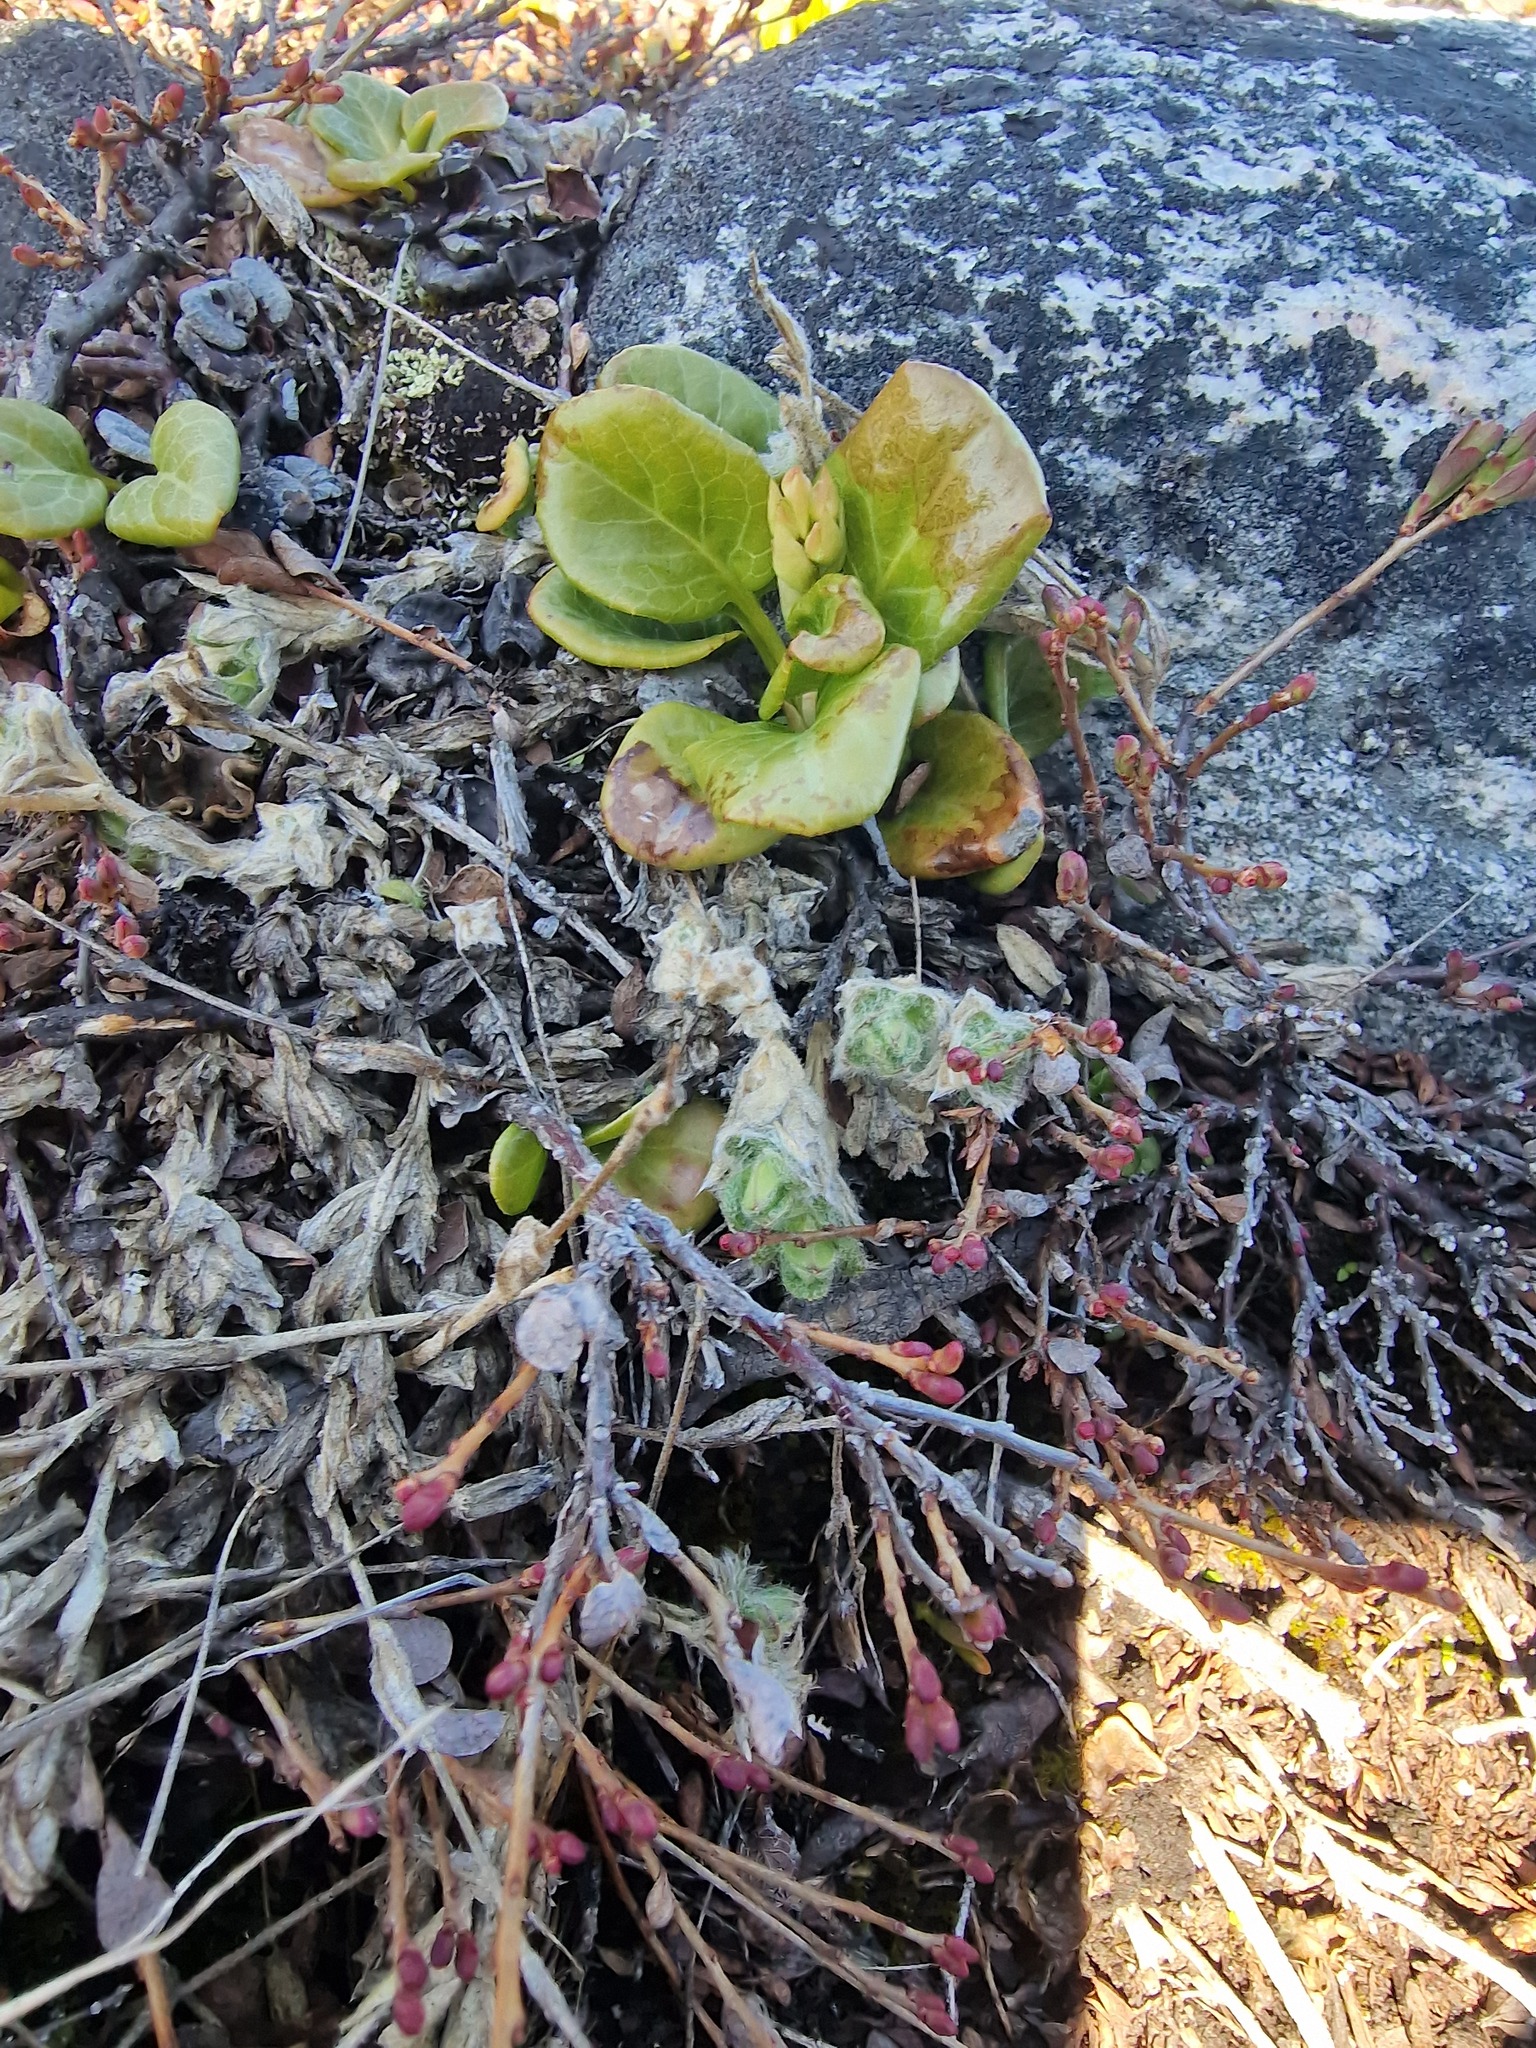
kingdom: Plantae
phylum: Tracheophyta
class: Magnoliopsida
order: Ericales
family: Ericaceae
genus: Pyrola
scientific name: Pyrola grandiflora
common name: Arctic pyrola
